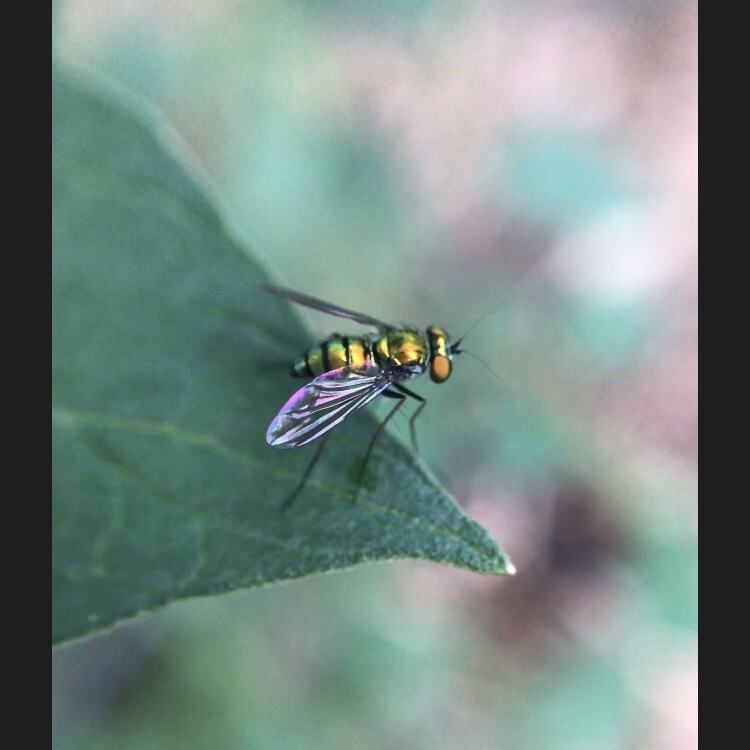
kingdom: Animalia
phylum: Arthropoda
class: Insecta
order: Diptera
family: Dolichopodidae
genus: Condylostylus
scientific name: Condylostylus
